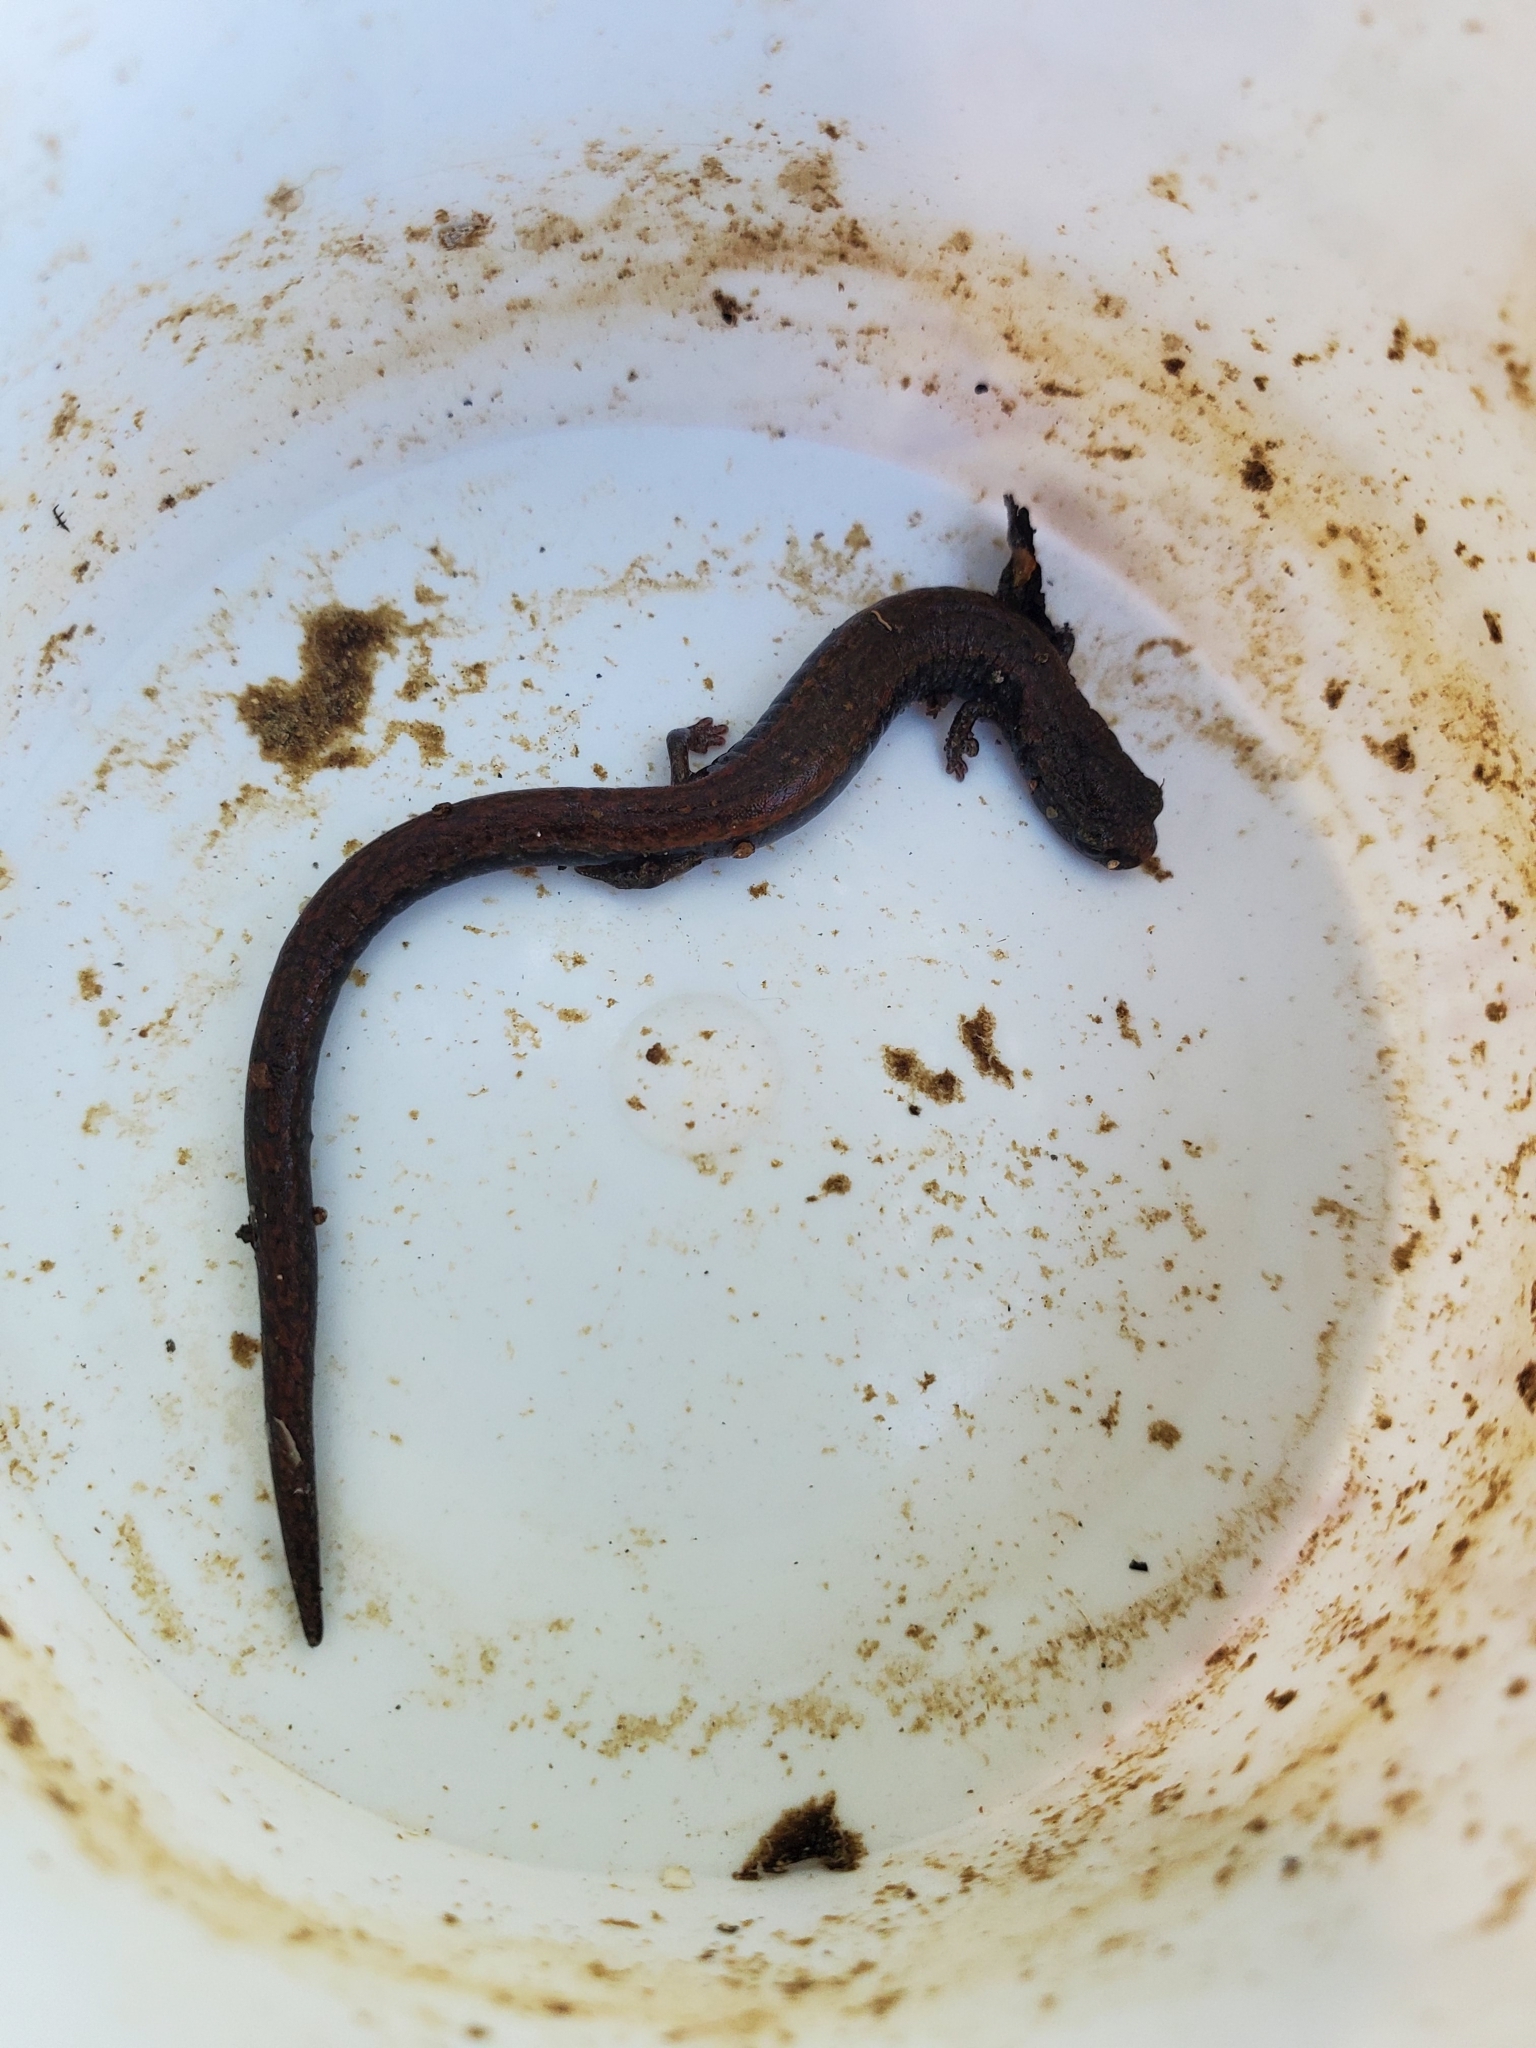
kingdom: Animalia
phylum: Chordata
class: Amphibia
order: Caudata
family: Plethodontidae
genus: Batrachoseps
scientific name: Batrachoseps nigriventris
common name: Black-bellied slender salamander
